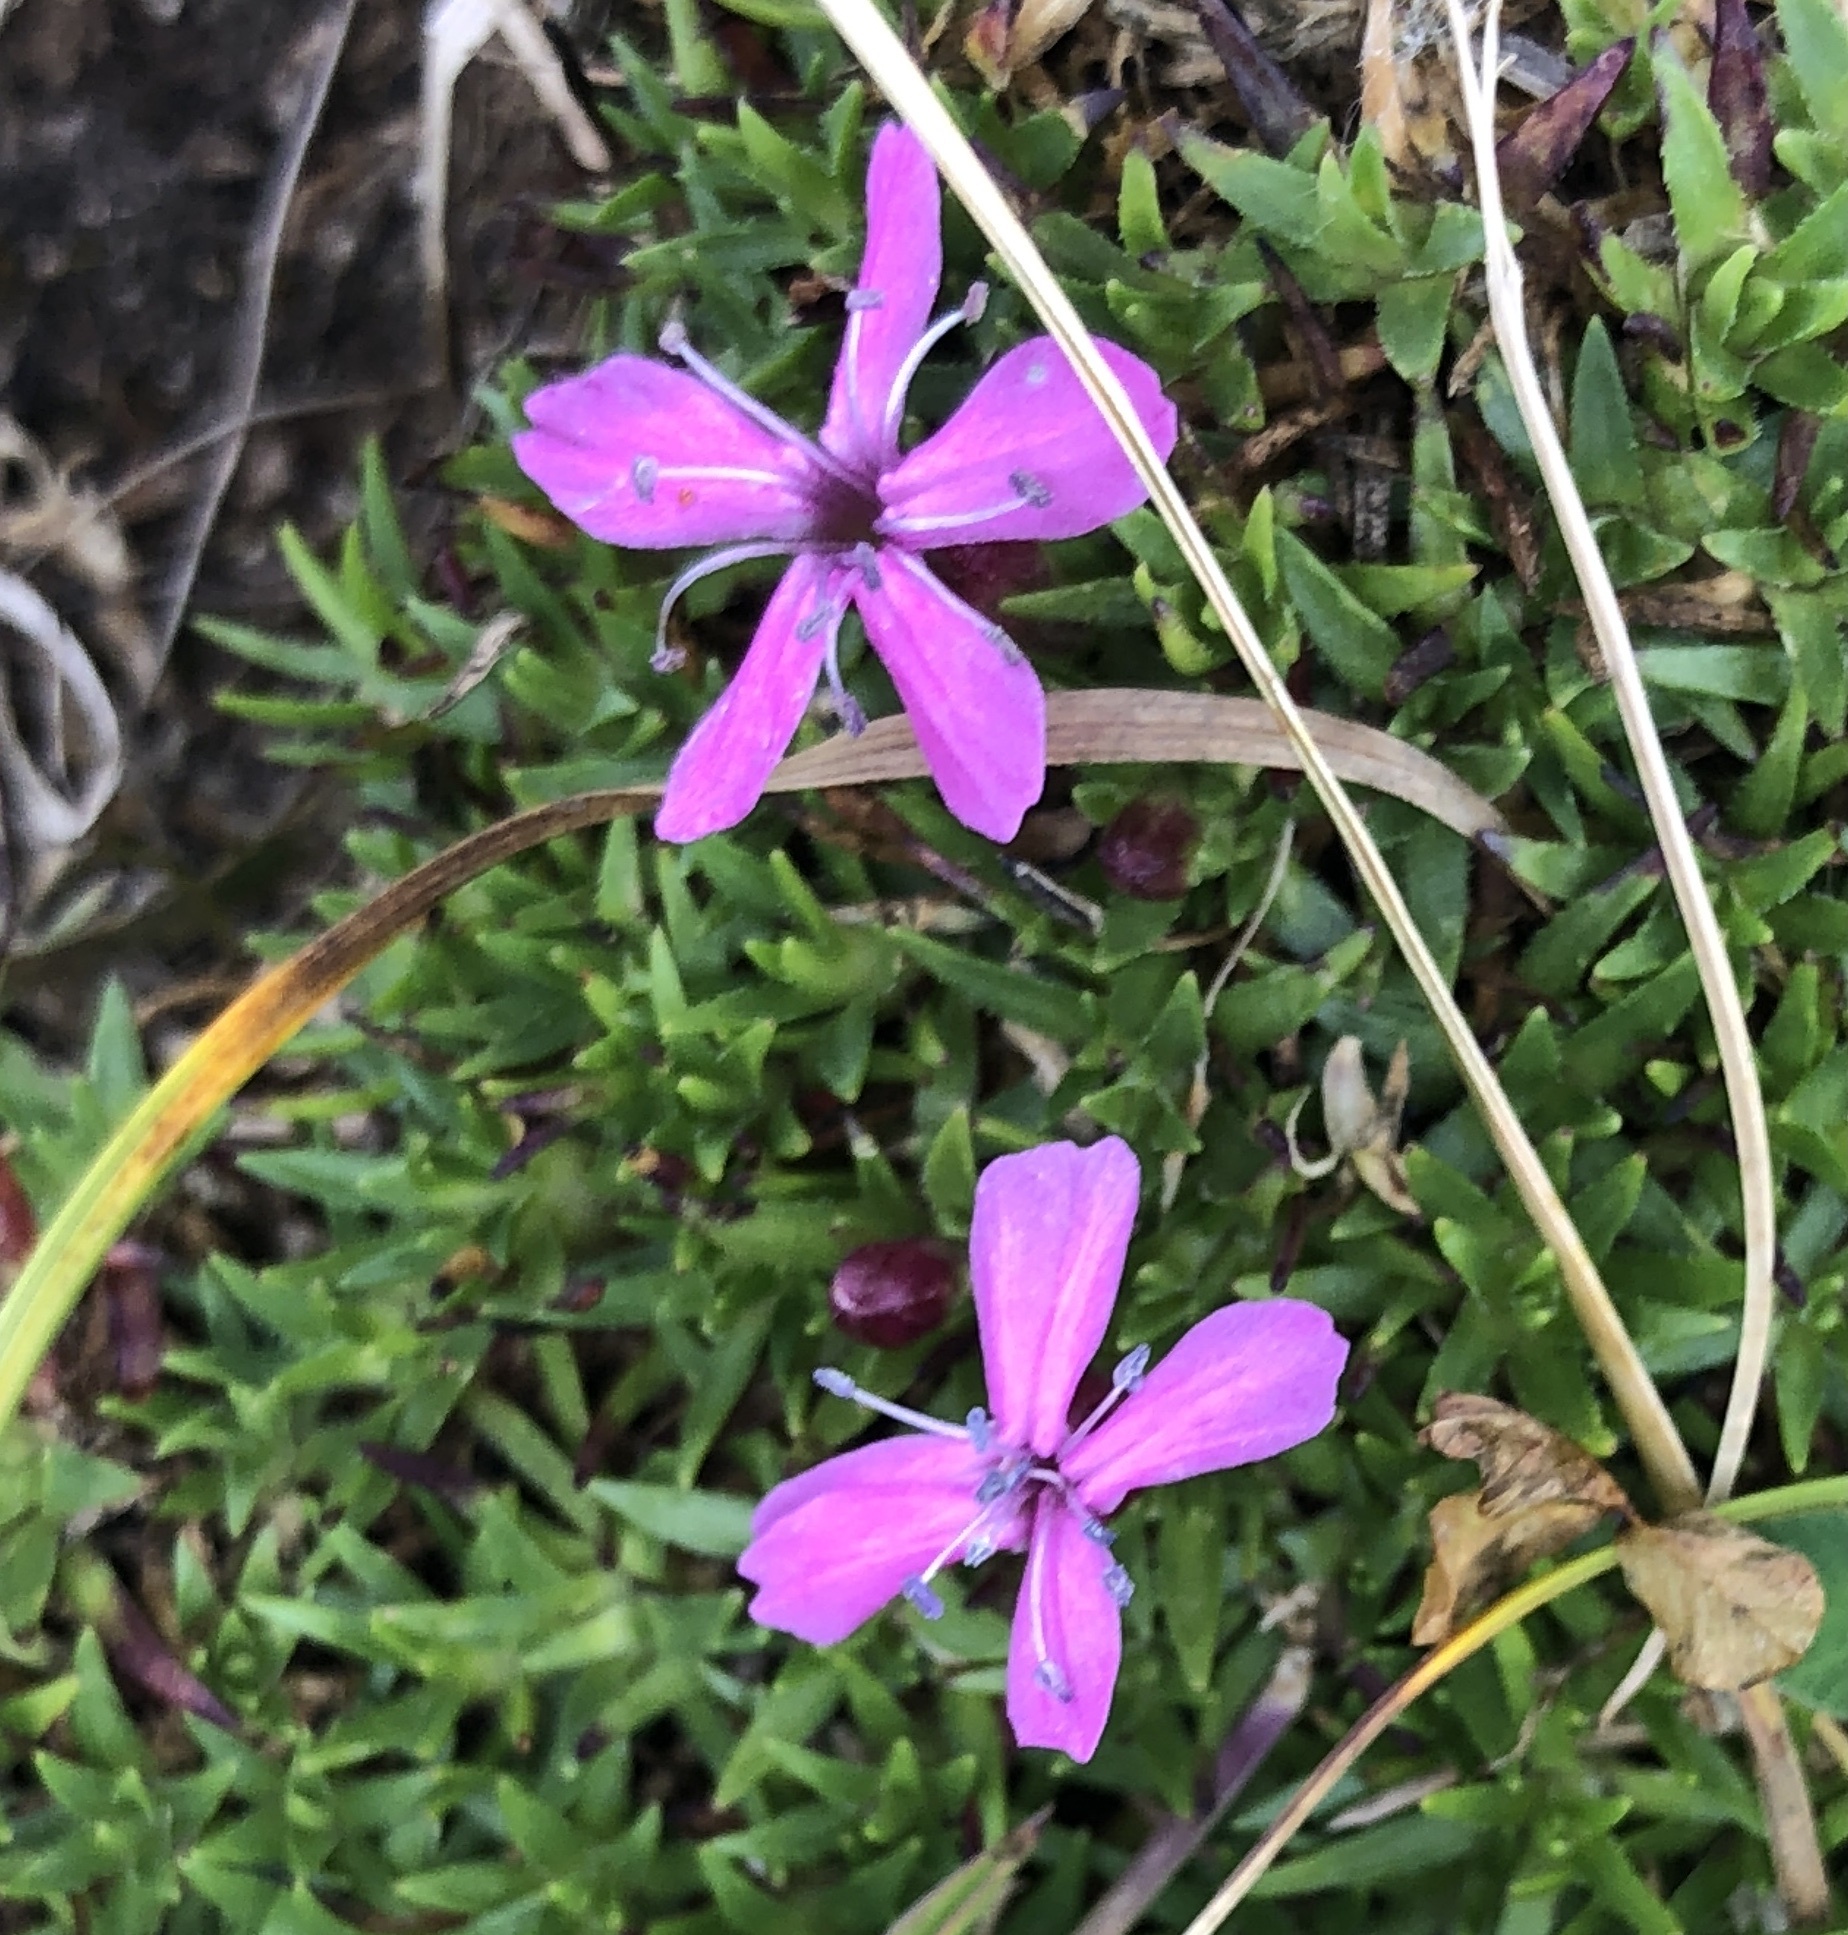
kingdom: Plantae
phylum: Tracheophyta
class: Magnoliopsida
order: Caryophyllales
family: Caryophyllaceae
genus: Silene
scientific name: Silene acaulis
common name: Moss campion
